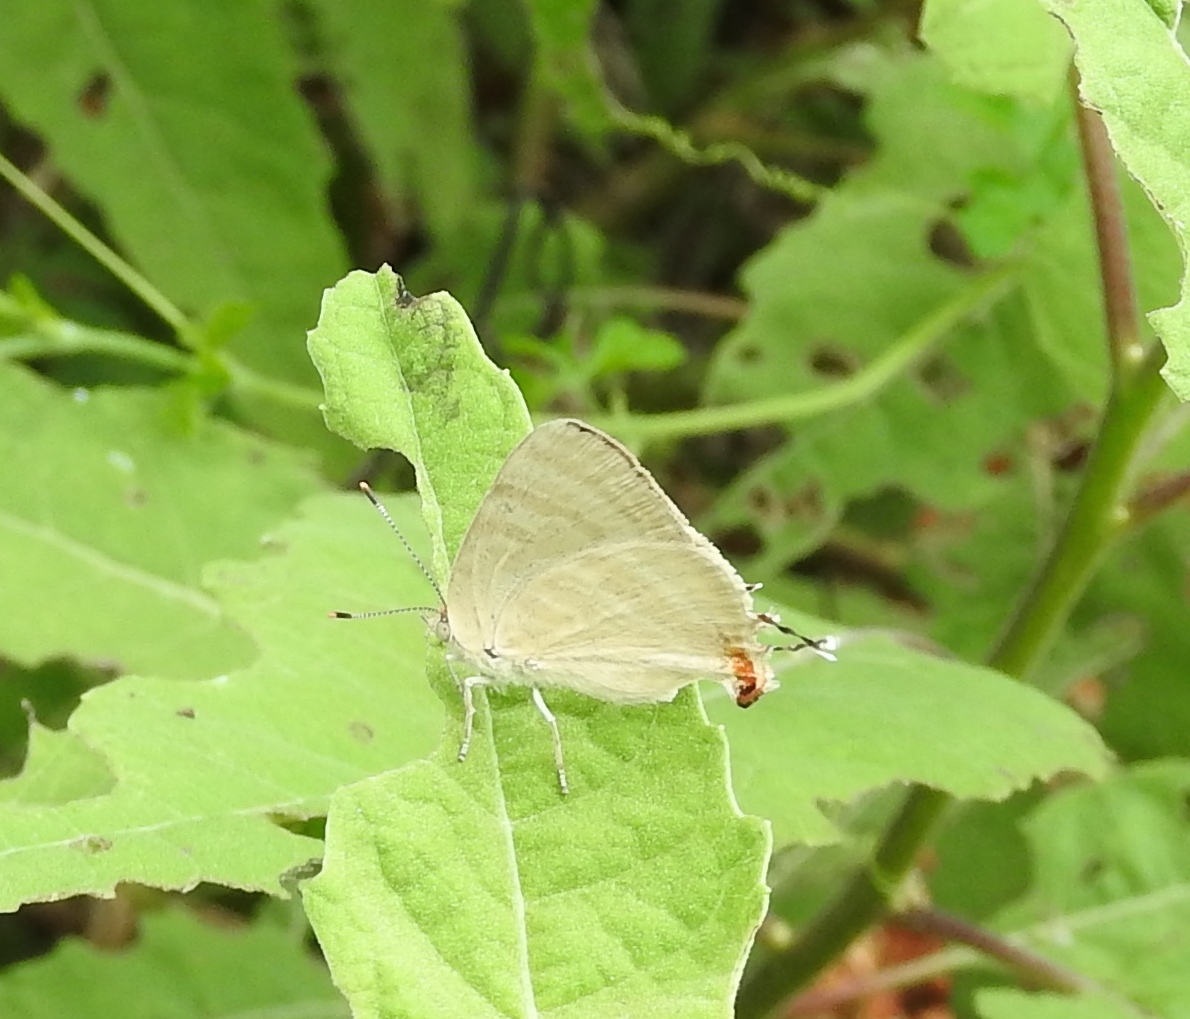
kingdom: Animalia
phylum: Arthropoda
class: Insecta
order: Lepidoptera
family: Lycaenidae
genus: Dolymorpha
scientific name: Dolymorpha jada
